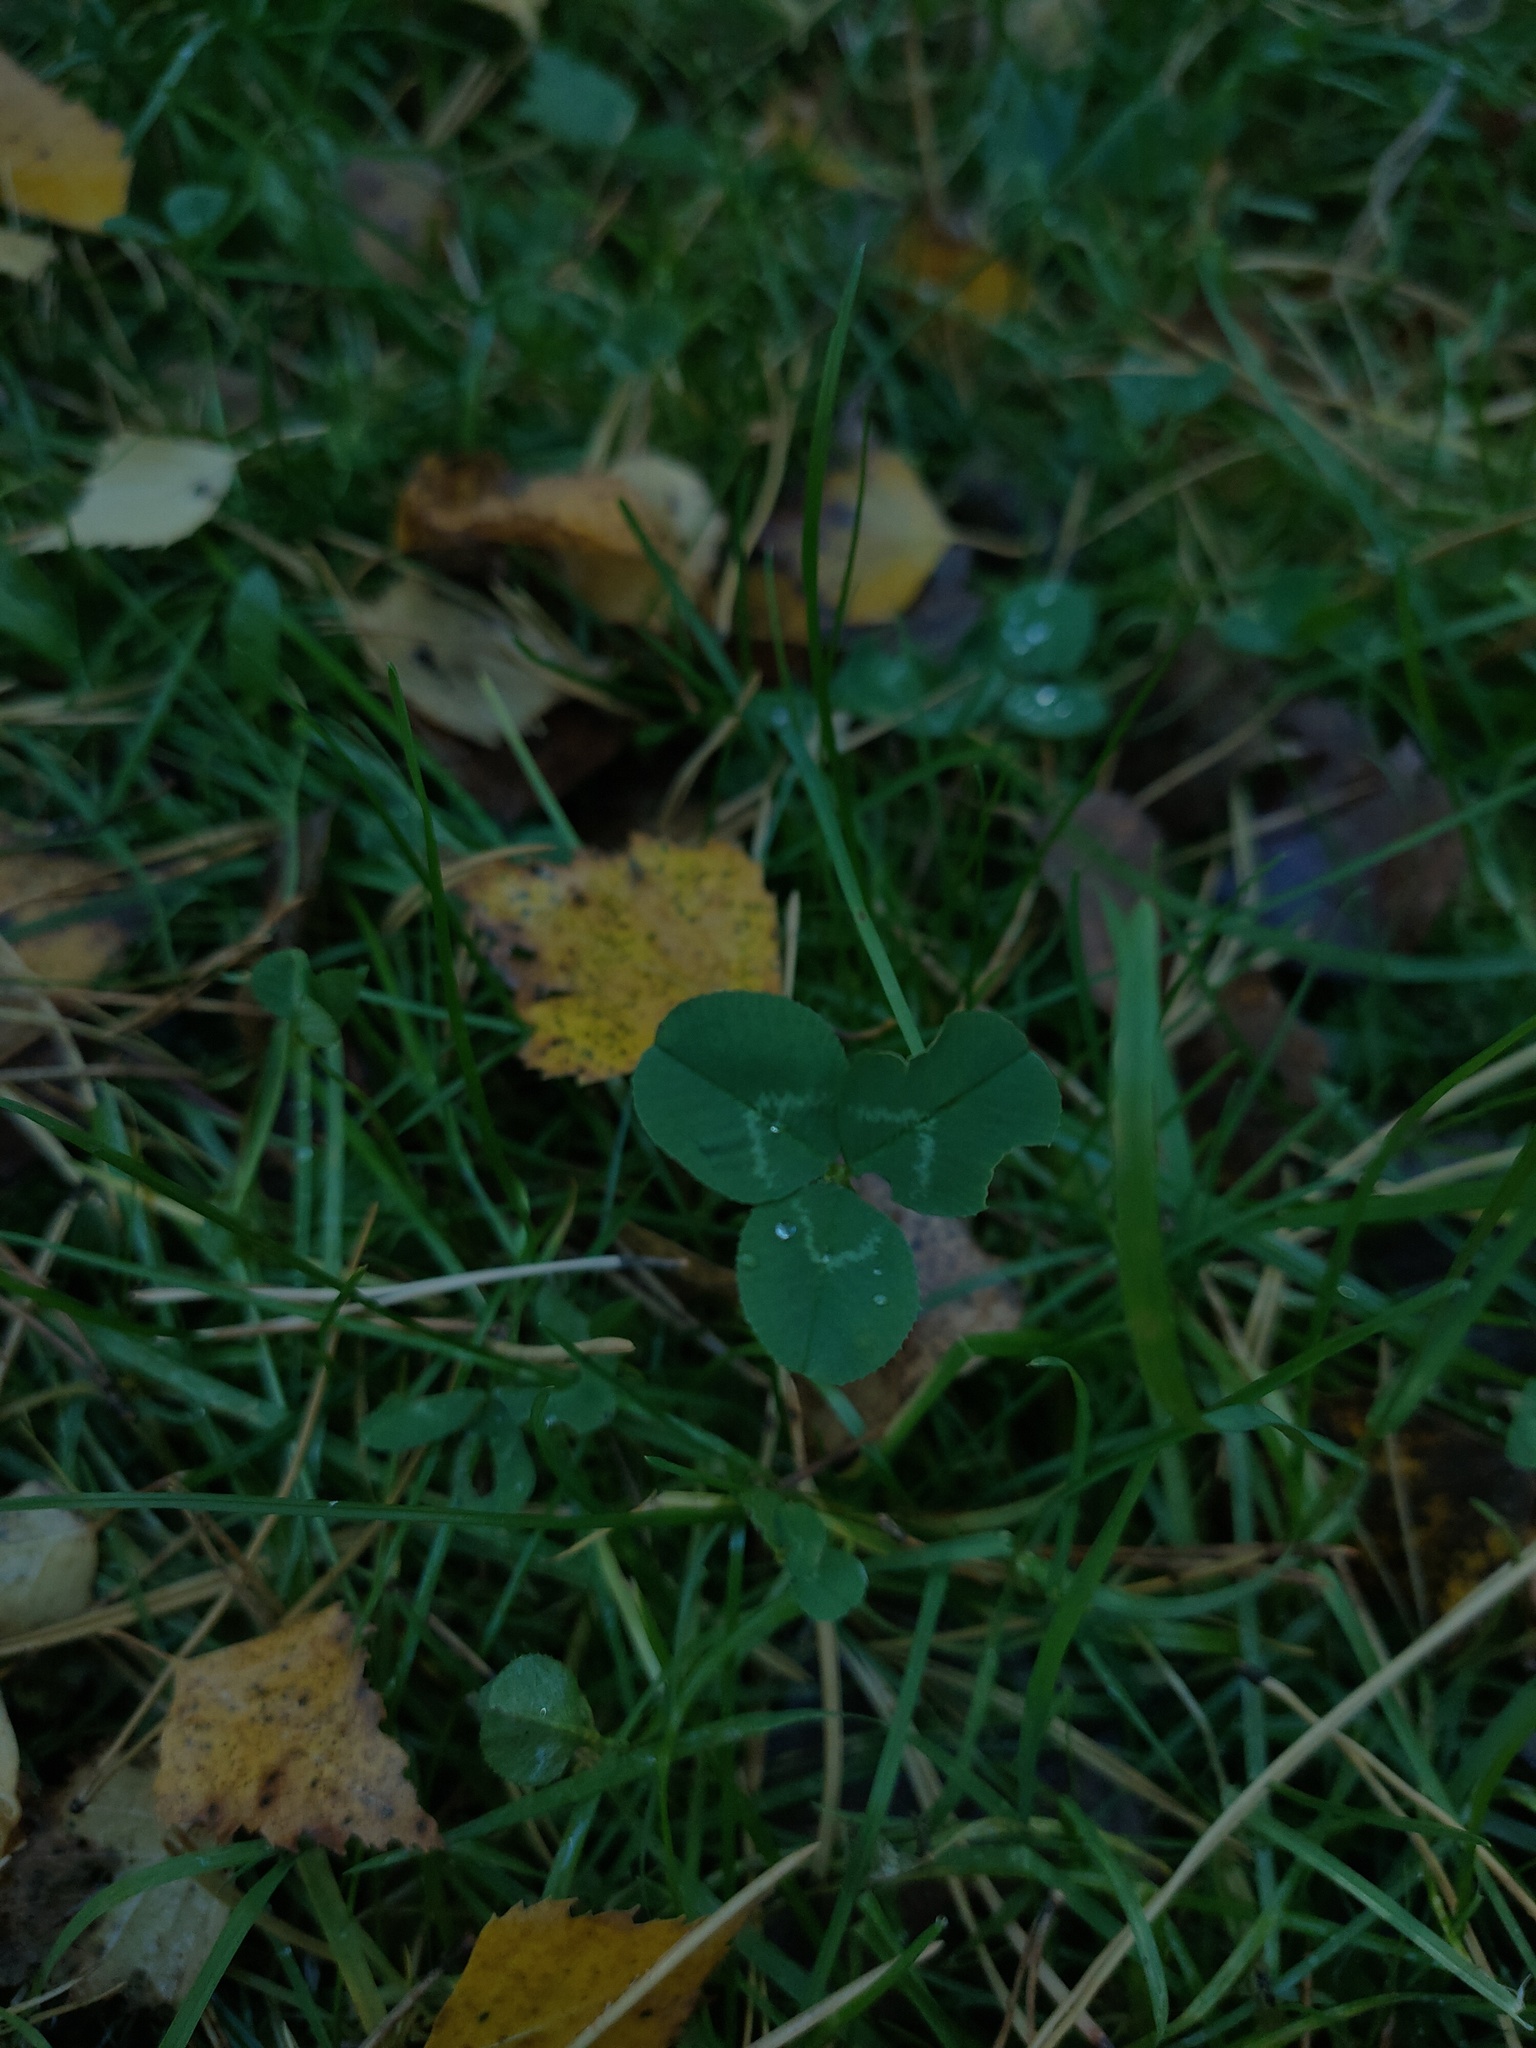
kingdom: Plantae
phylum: Tracheophyta
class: Magnoliopsida
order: Fabales
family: Fabaceae
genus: Trifolium
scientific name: Trifolium repens
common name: White clover
